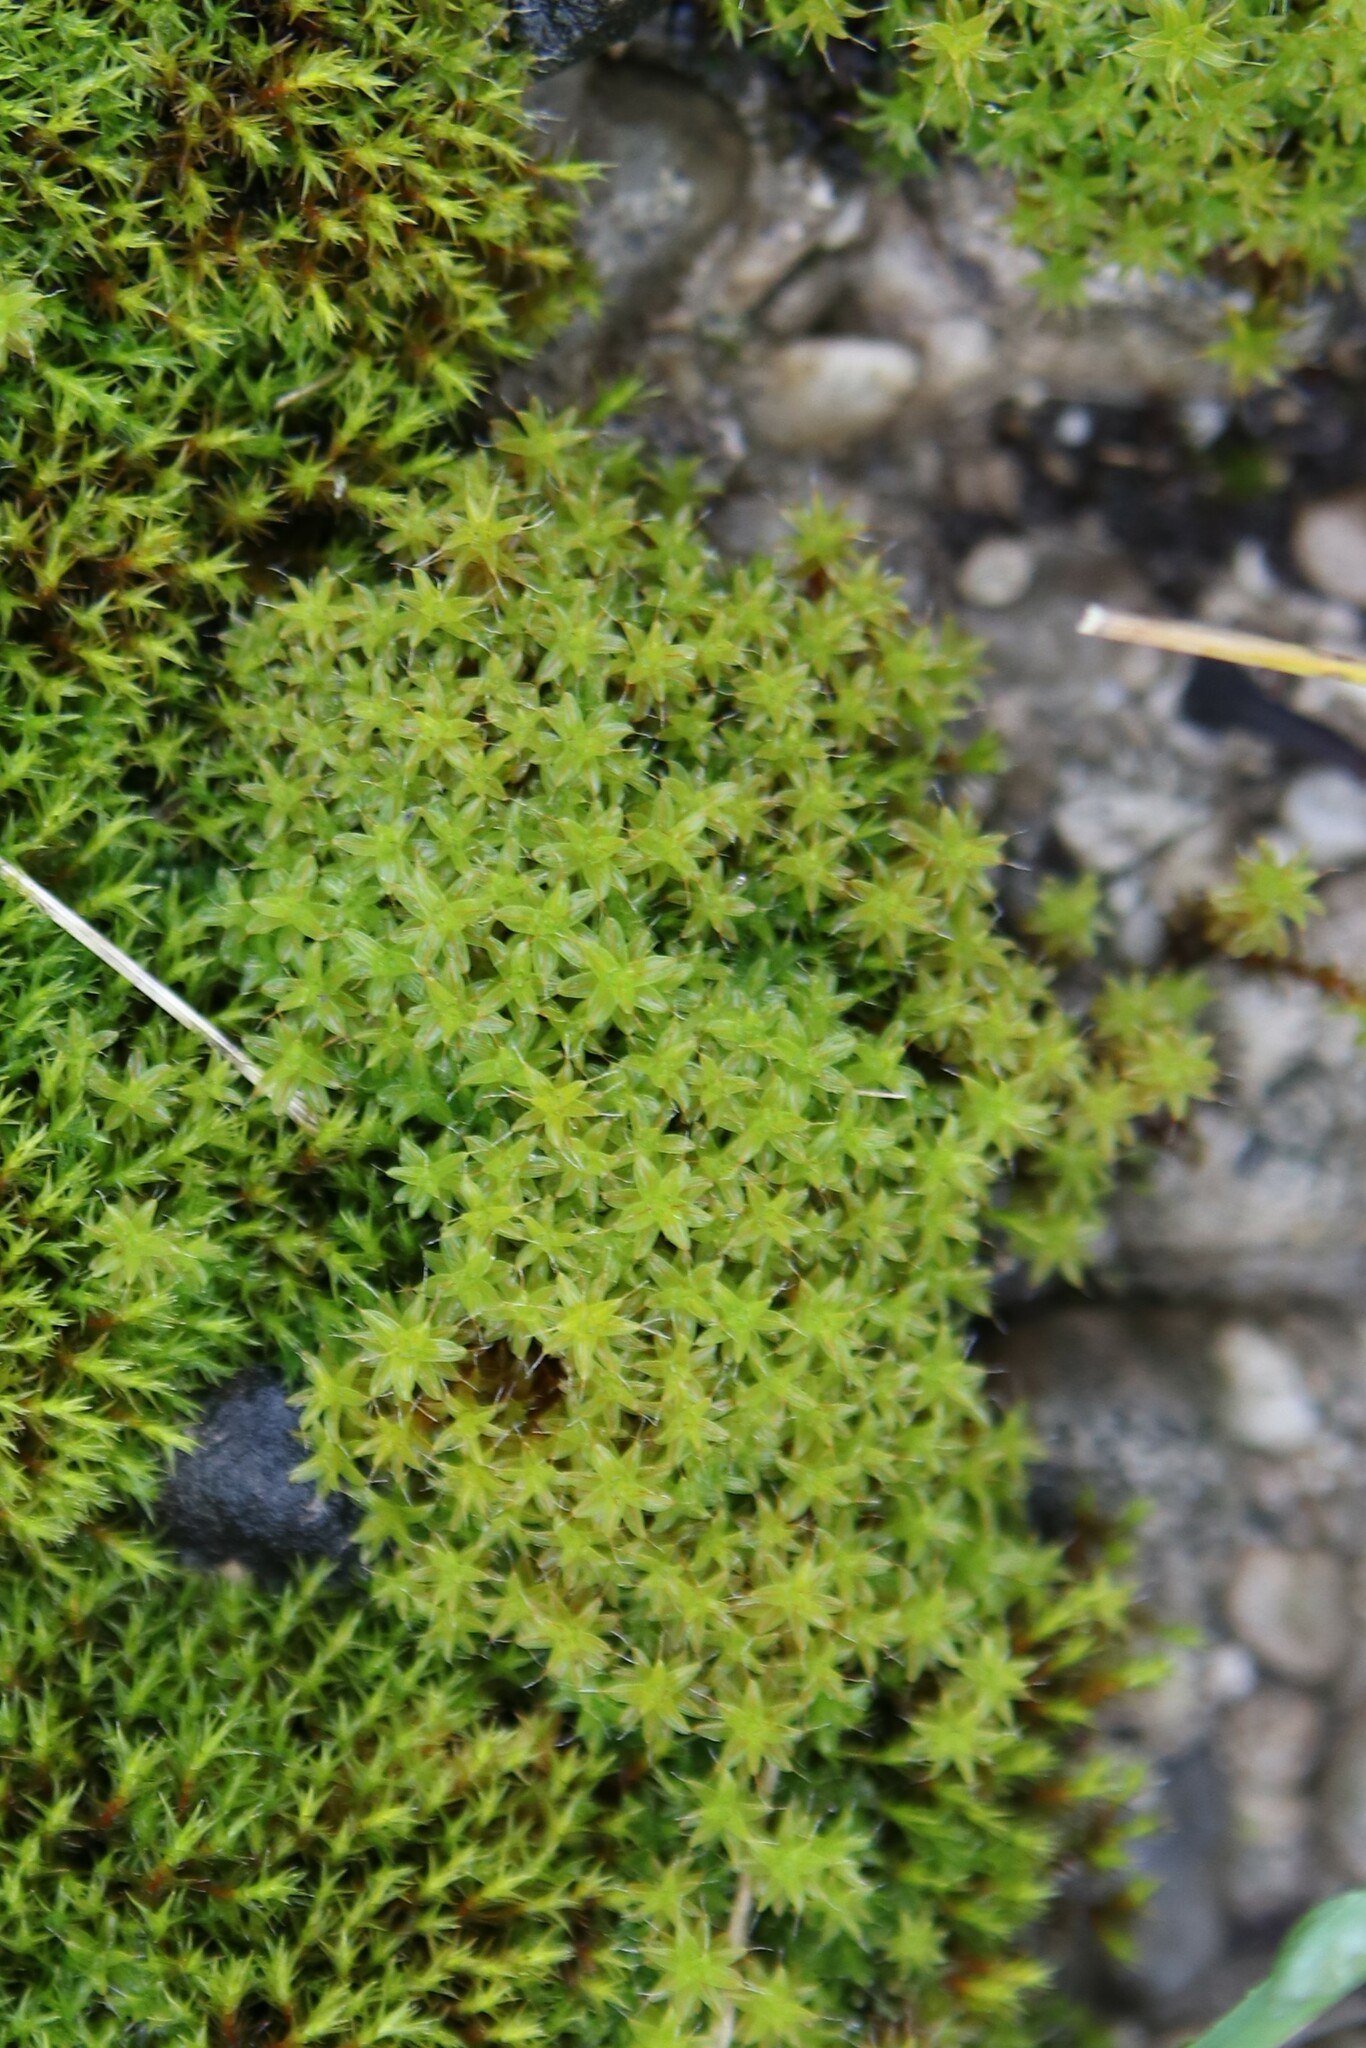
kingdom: Plantae
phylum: Bryophyta
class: Bryopsida
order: Pottiales
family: Pottiaceae
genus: Syntrichia
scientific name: Syntrichia ruralis
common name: Sidewalk screw moss
